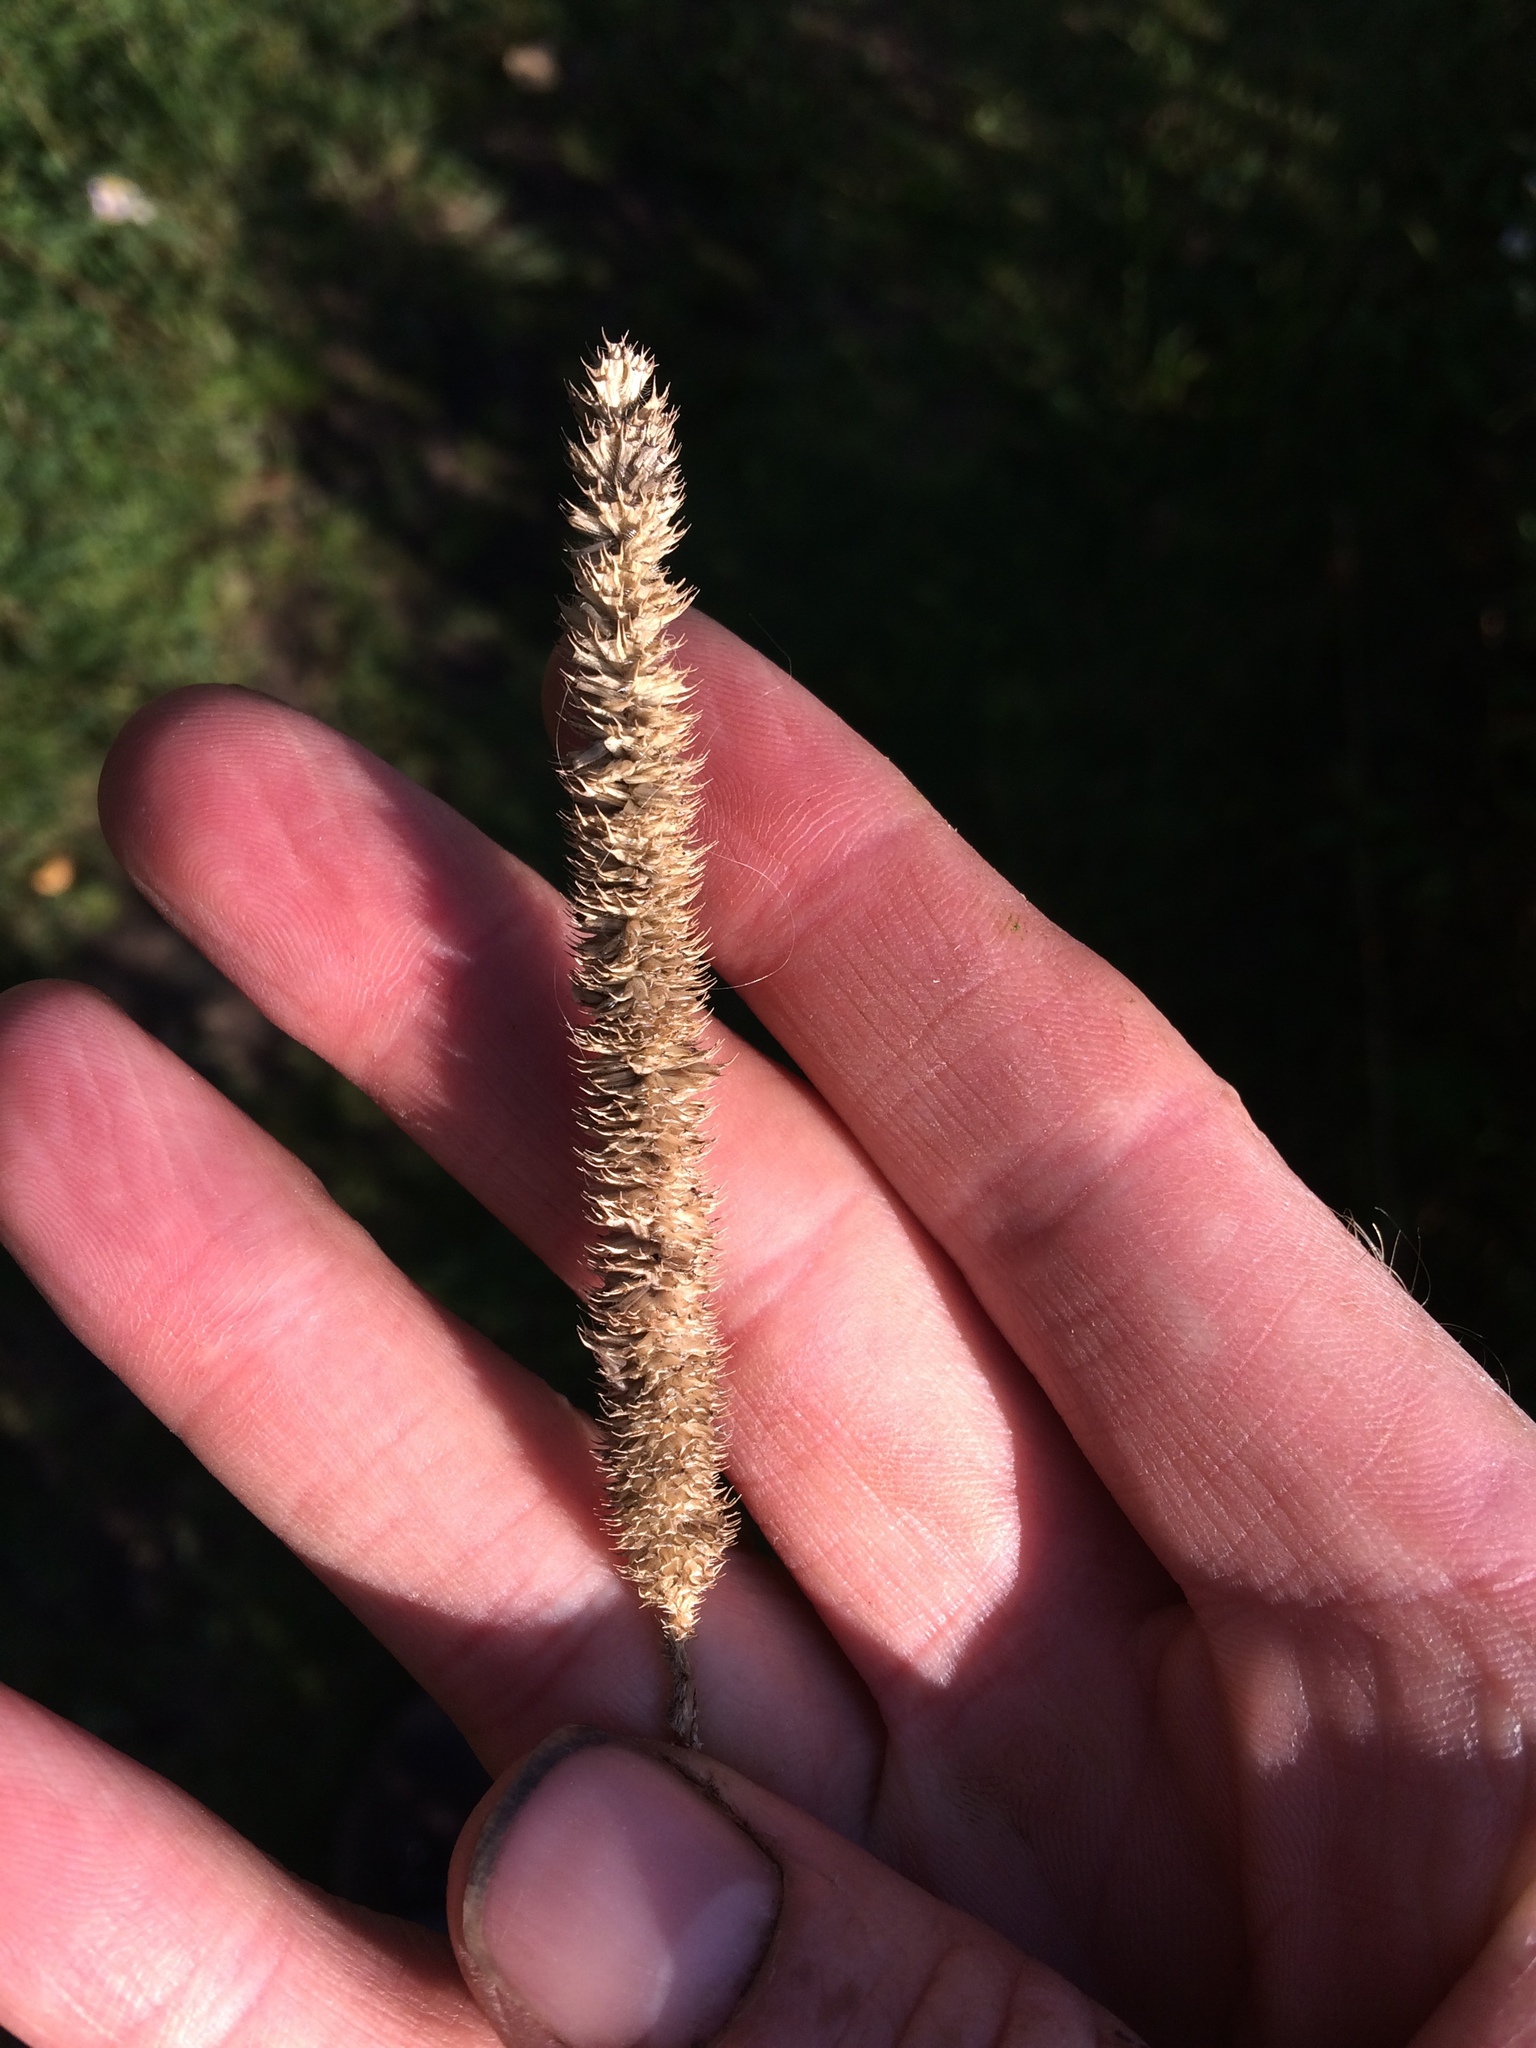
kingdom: Plantae
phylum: Tracheophyta
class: Liliopsida
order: Poales
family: Poaceae
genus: Phleum
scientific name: Phleum pratense
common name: Timothy grass
